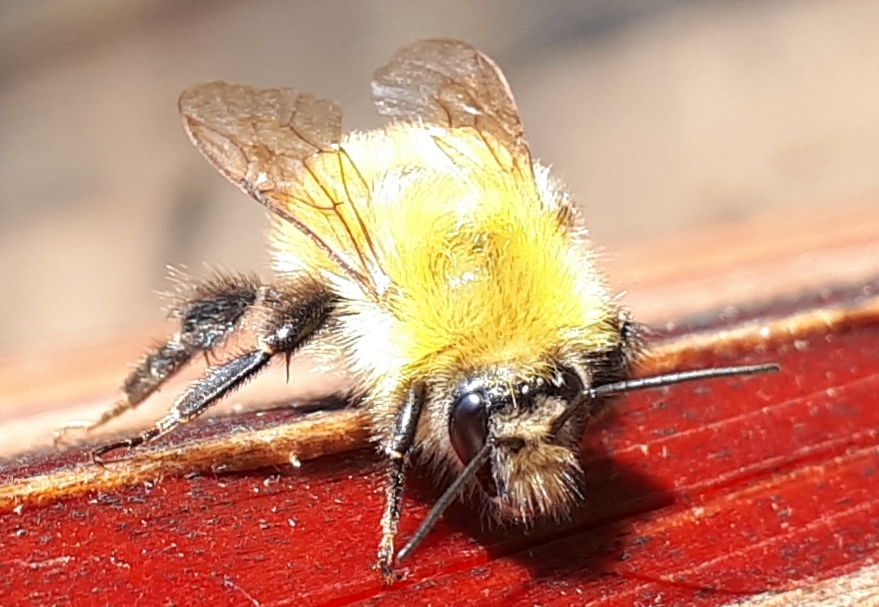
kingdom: Animalia
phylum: Arthropoda
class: Insecta
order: Hymenoptera
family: Apidae
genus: Bombus
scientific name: Bombus perplexus
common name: Confusing bumble bee
